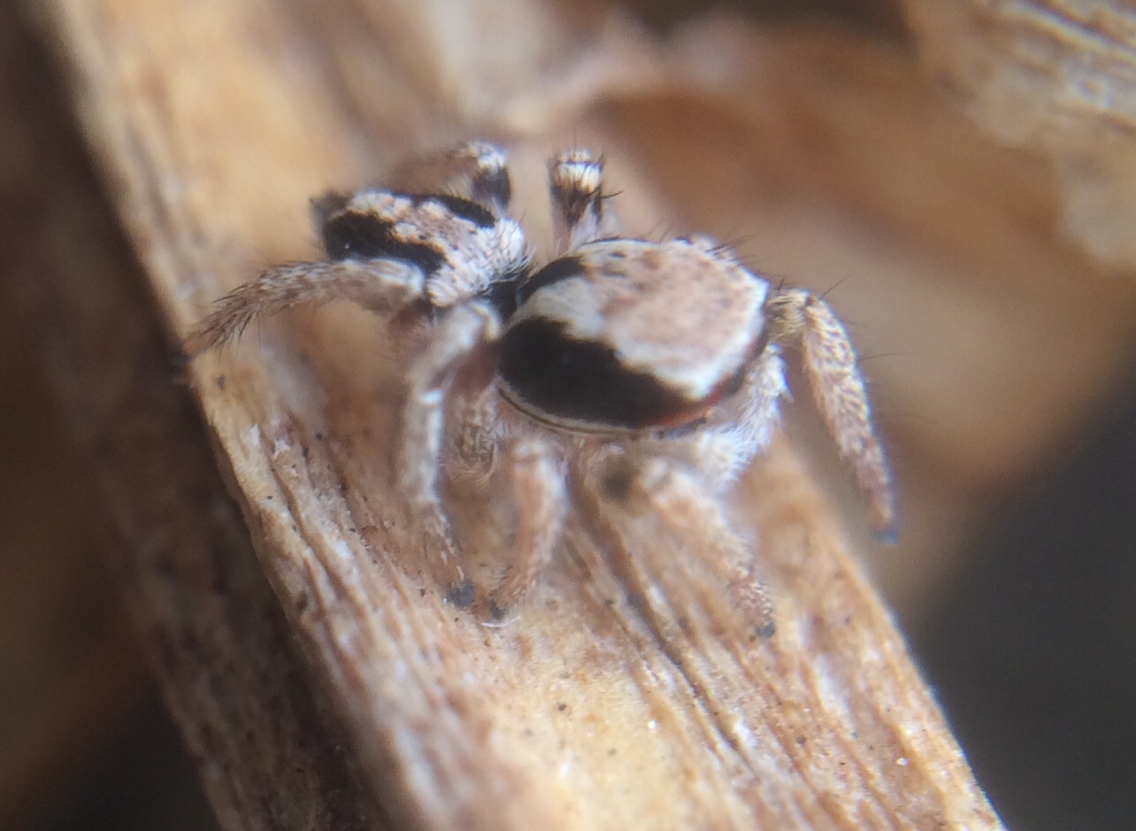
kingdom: Animalia
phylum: Arthropoda
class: Arachnida
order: Araneae
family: Salticidae
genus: Habronattus
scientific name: Habronattus pyrrithrix
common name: Jumping spider
